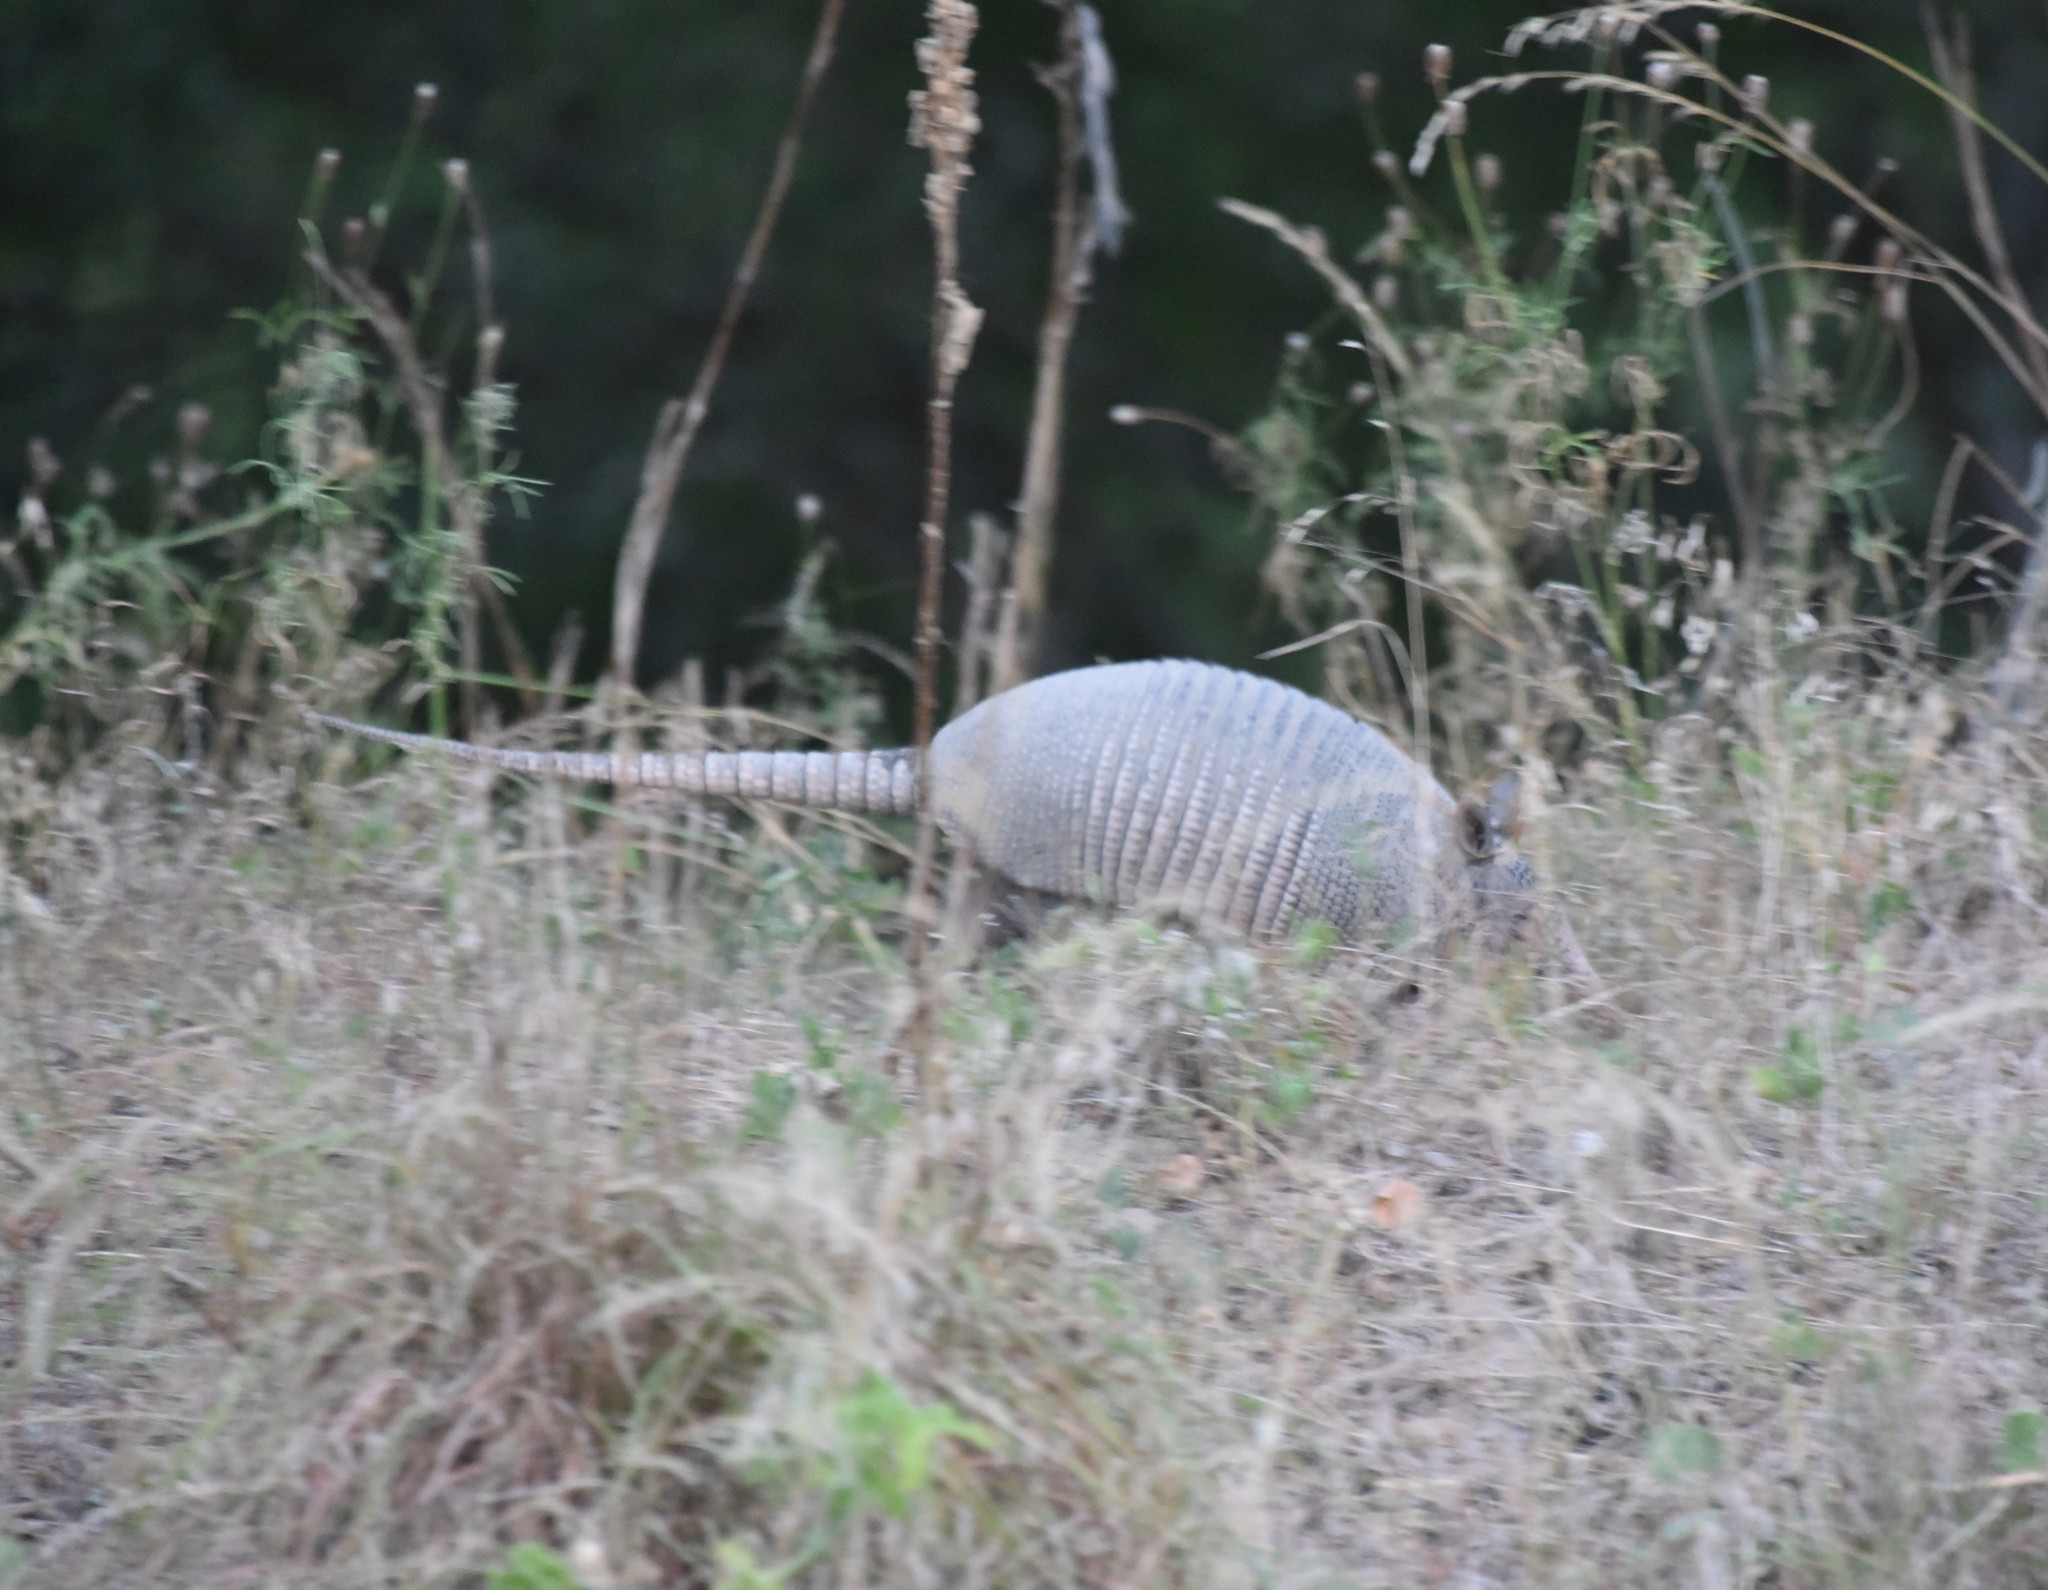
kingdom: Animalia
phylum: Chordata
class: Mammalia
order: Cingulata
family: Dasypodidae
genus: Dasypus
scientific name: Dasypus novemcinctus
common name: Nine-banded armadillo
